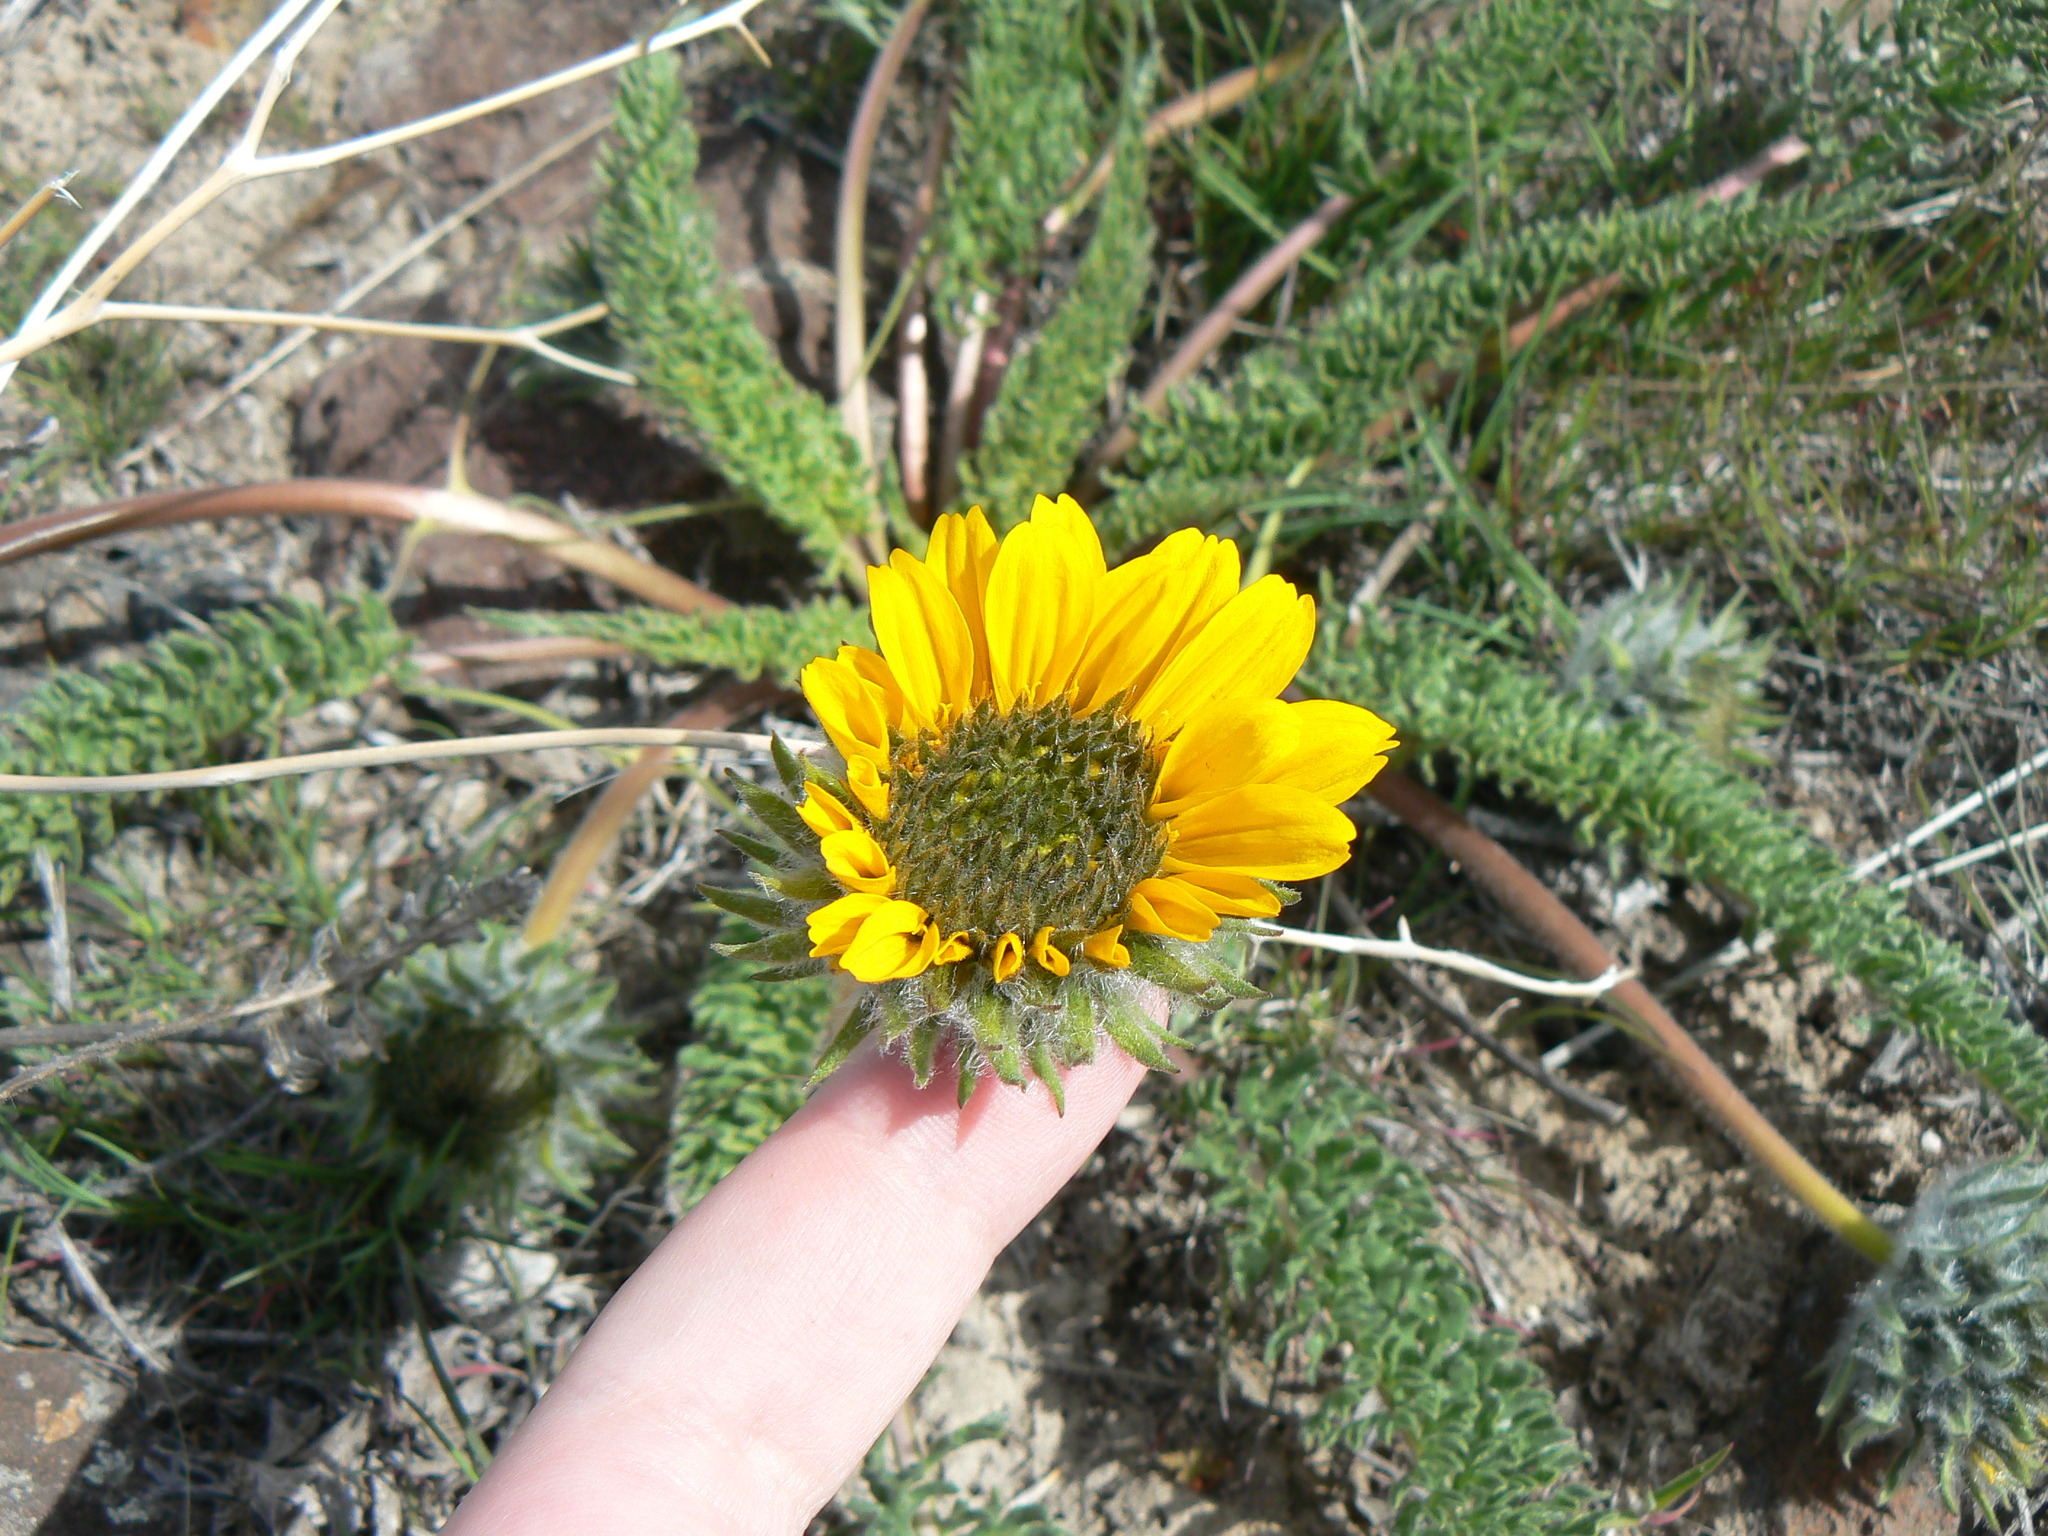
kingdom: Plantae
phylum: Tracheophyta
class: Magnoliopsida
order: Asterales
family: Asteraceae
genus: Balsamorhiza
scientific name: Balsamorhiza hookeri
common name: Hooker's balsamroot
